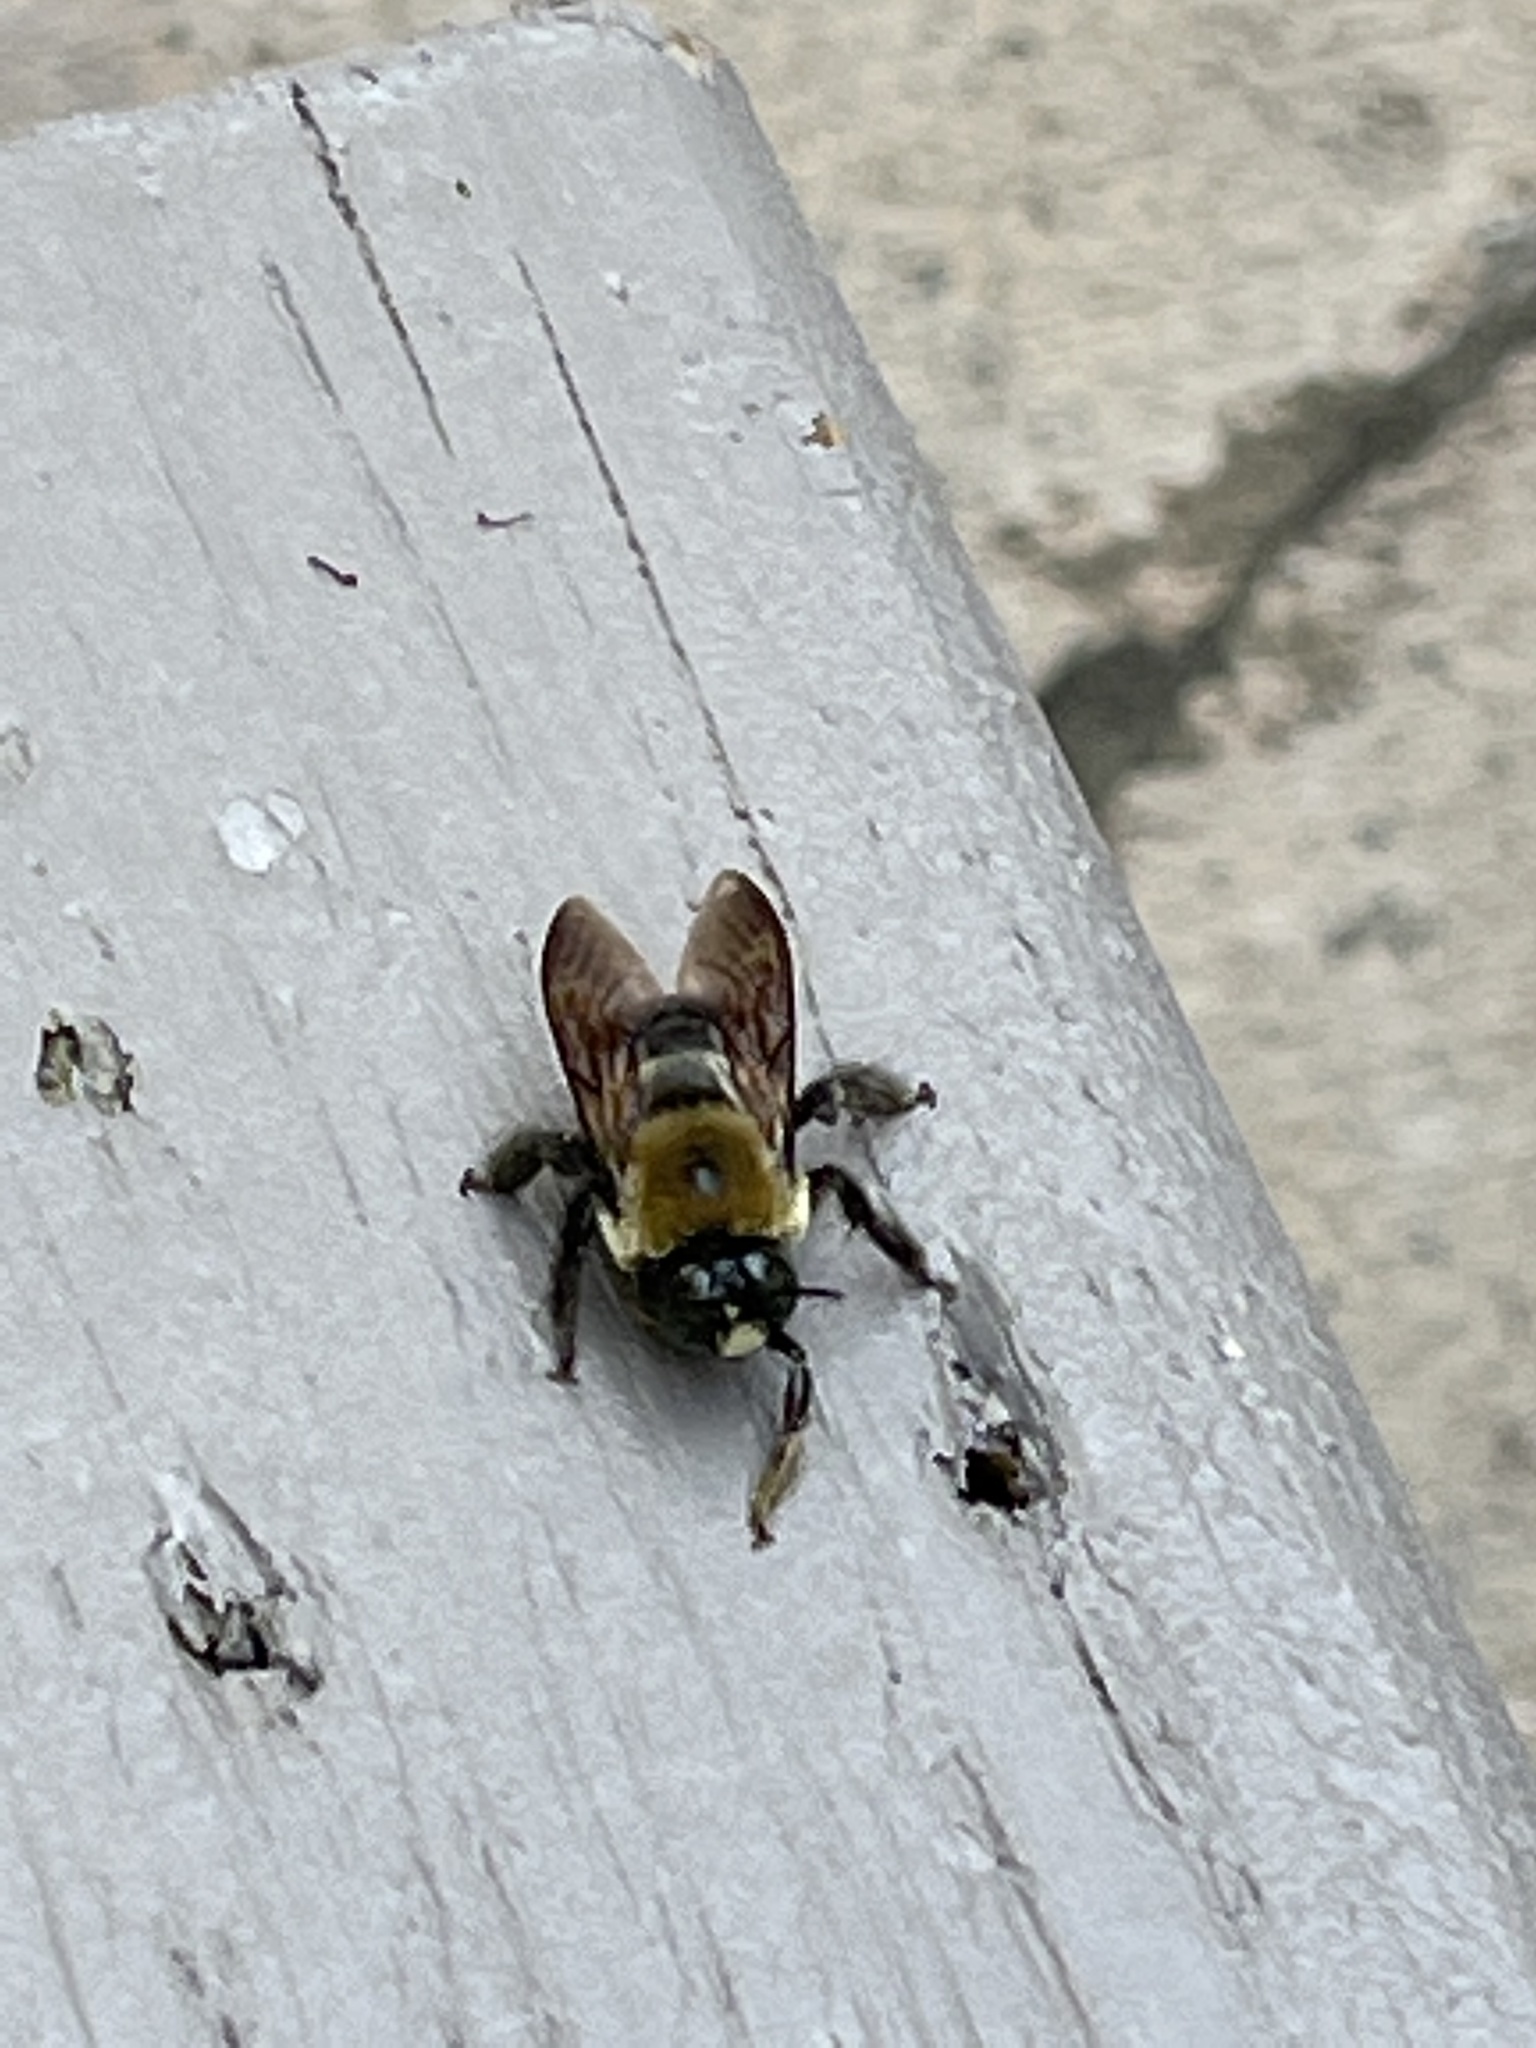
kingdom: Animalia
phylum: Arthropoda
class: Insecta
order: Hymenoptera
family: Apidae
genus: Xylocopa
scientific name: Xylocopa virginica
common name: Carpenter bee
